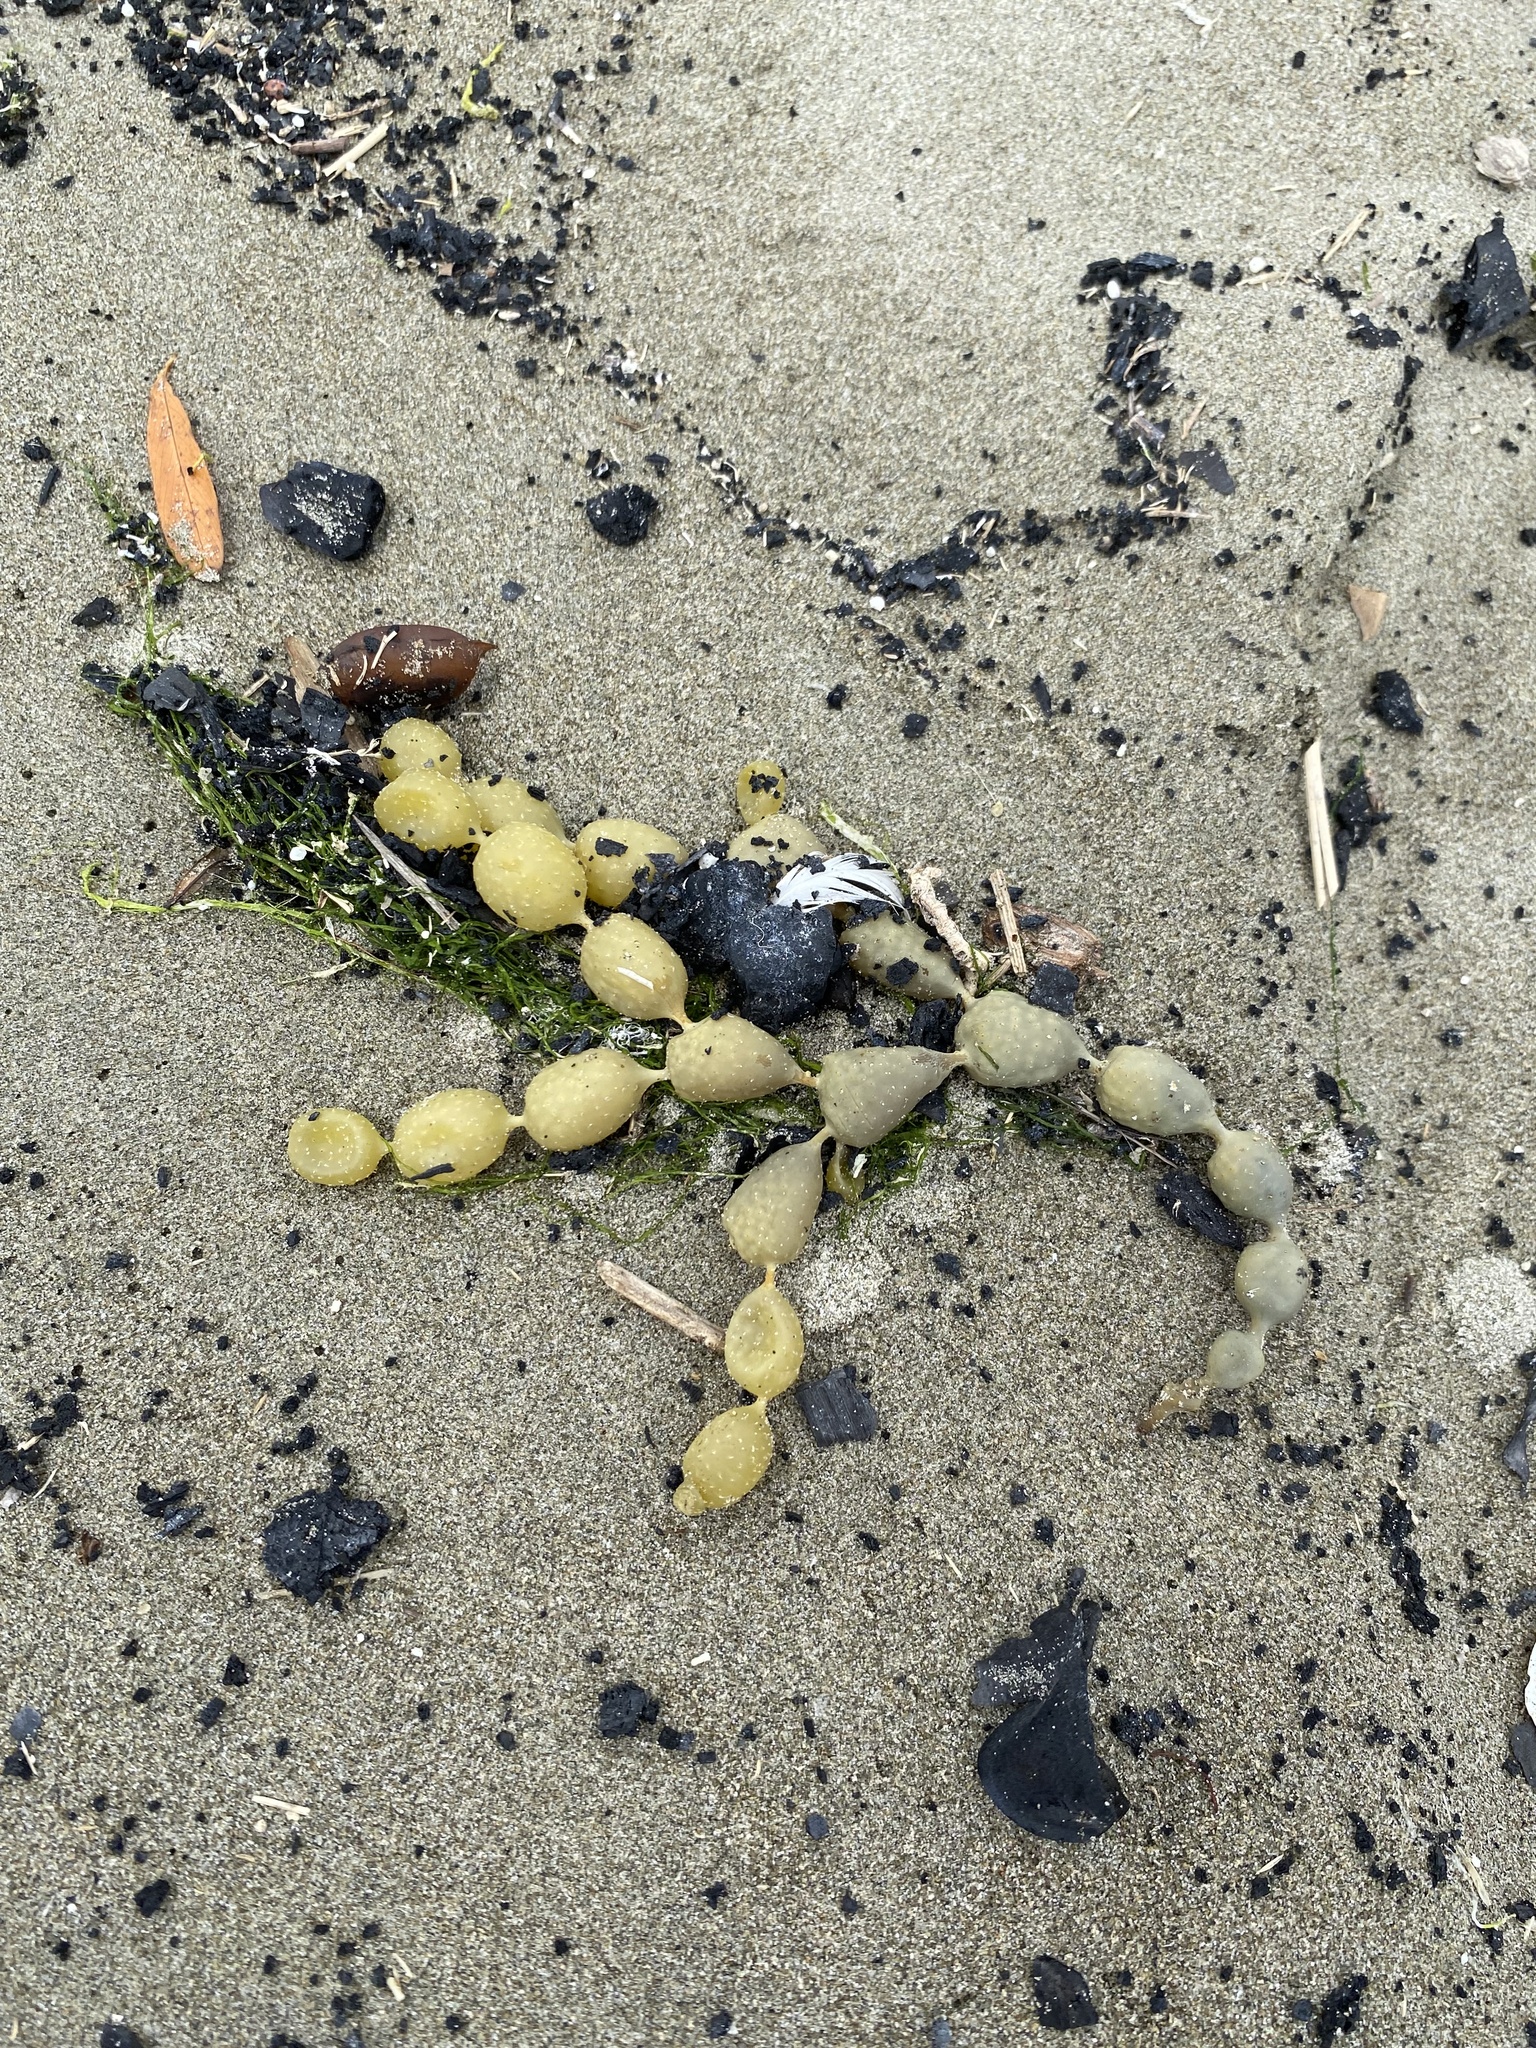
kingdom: Chromista
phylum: Ochrophyta
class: Phaeophyceae
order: Fucales
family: Hormosiraceae
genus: Hormosira
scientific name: Hormosira banksii
